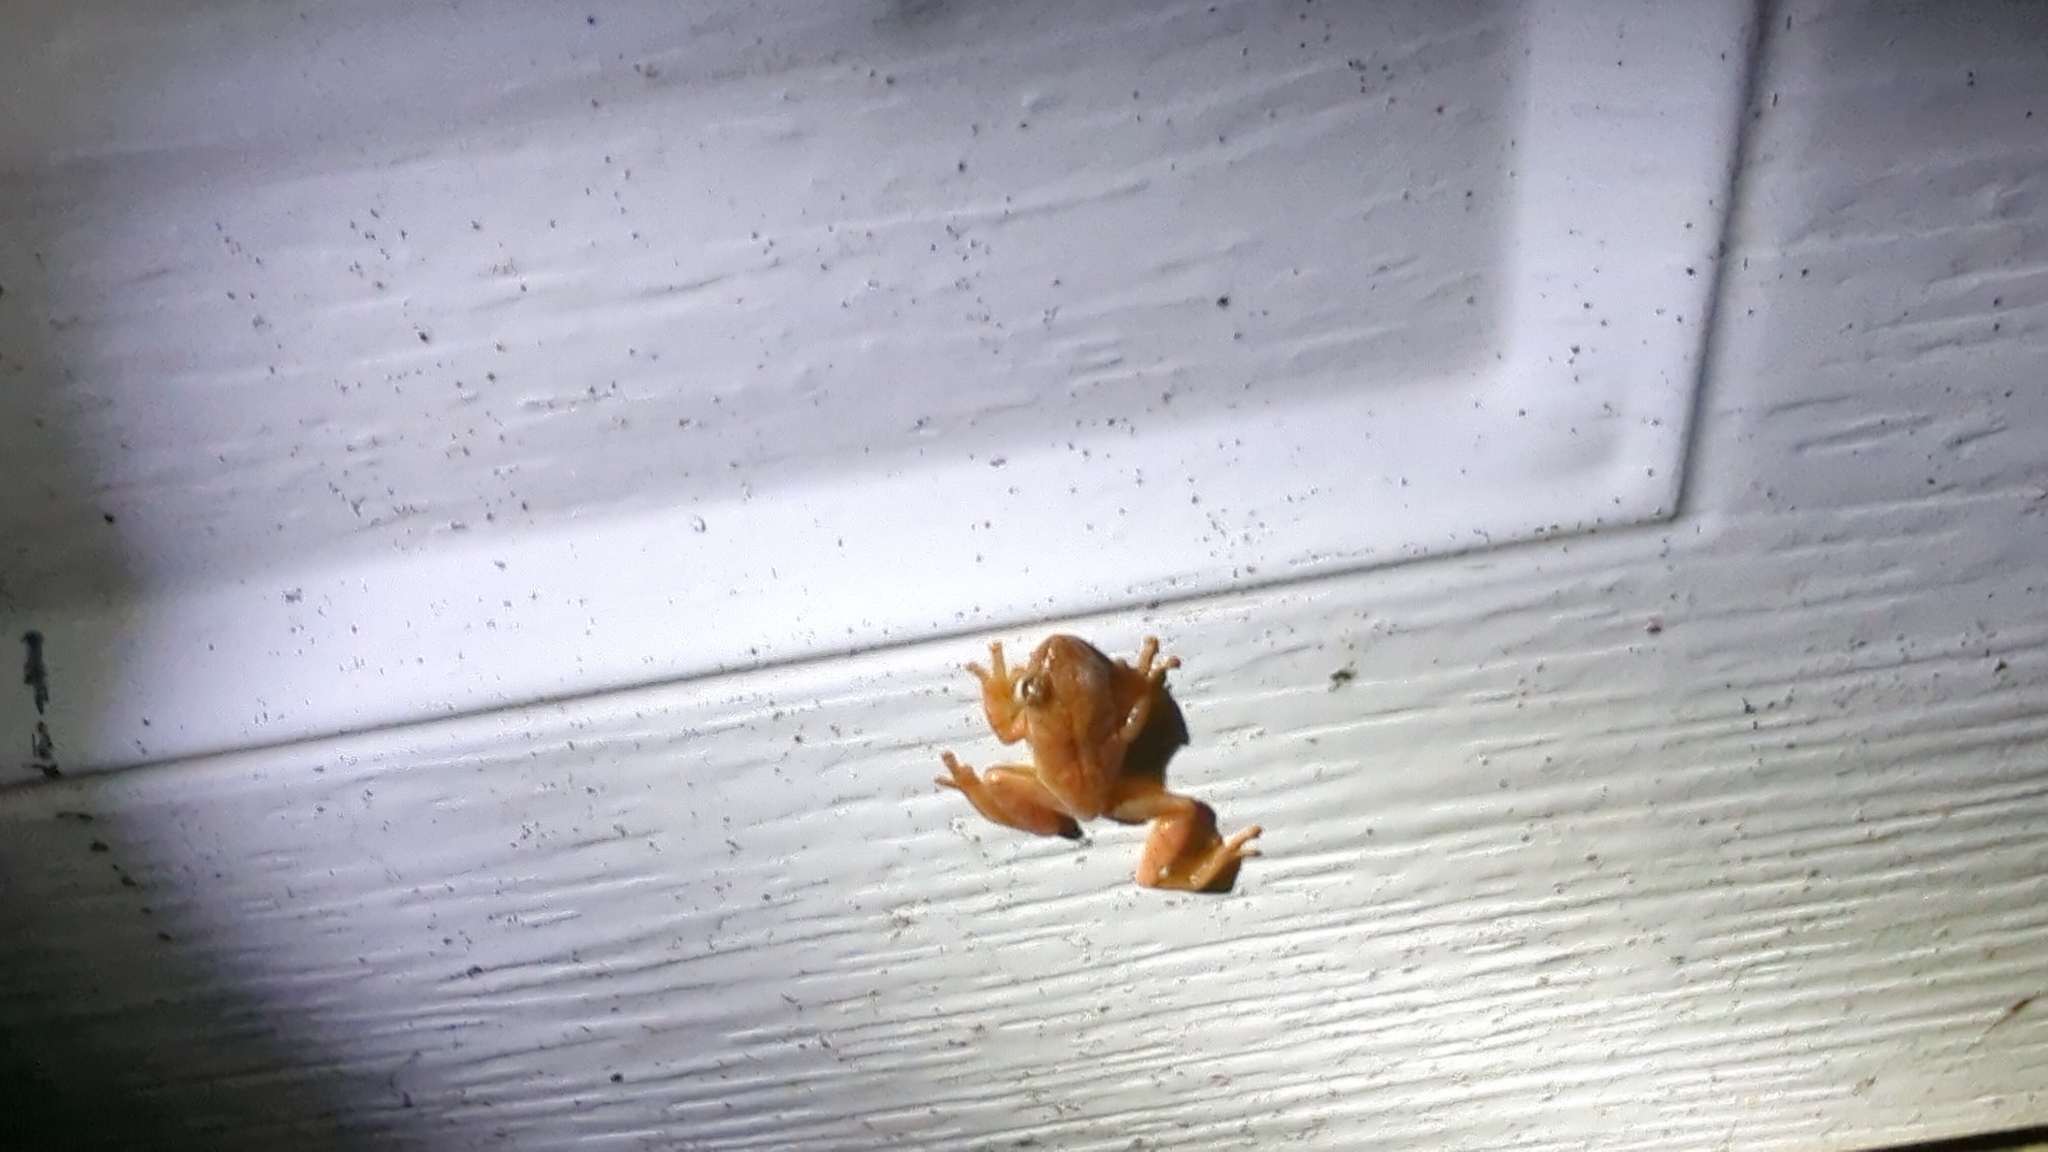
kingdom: Animalia
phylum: Chordata
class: Amphibia
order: Anura
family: Hylidae
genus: Pseudacris
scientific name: Pseudacris crucifer
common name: Spring peeper
